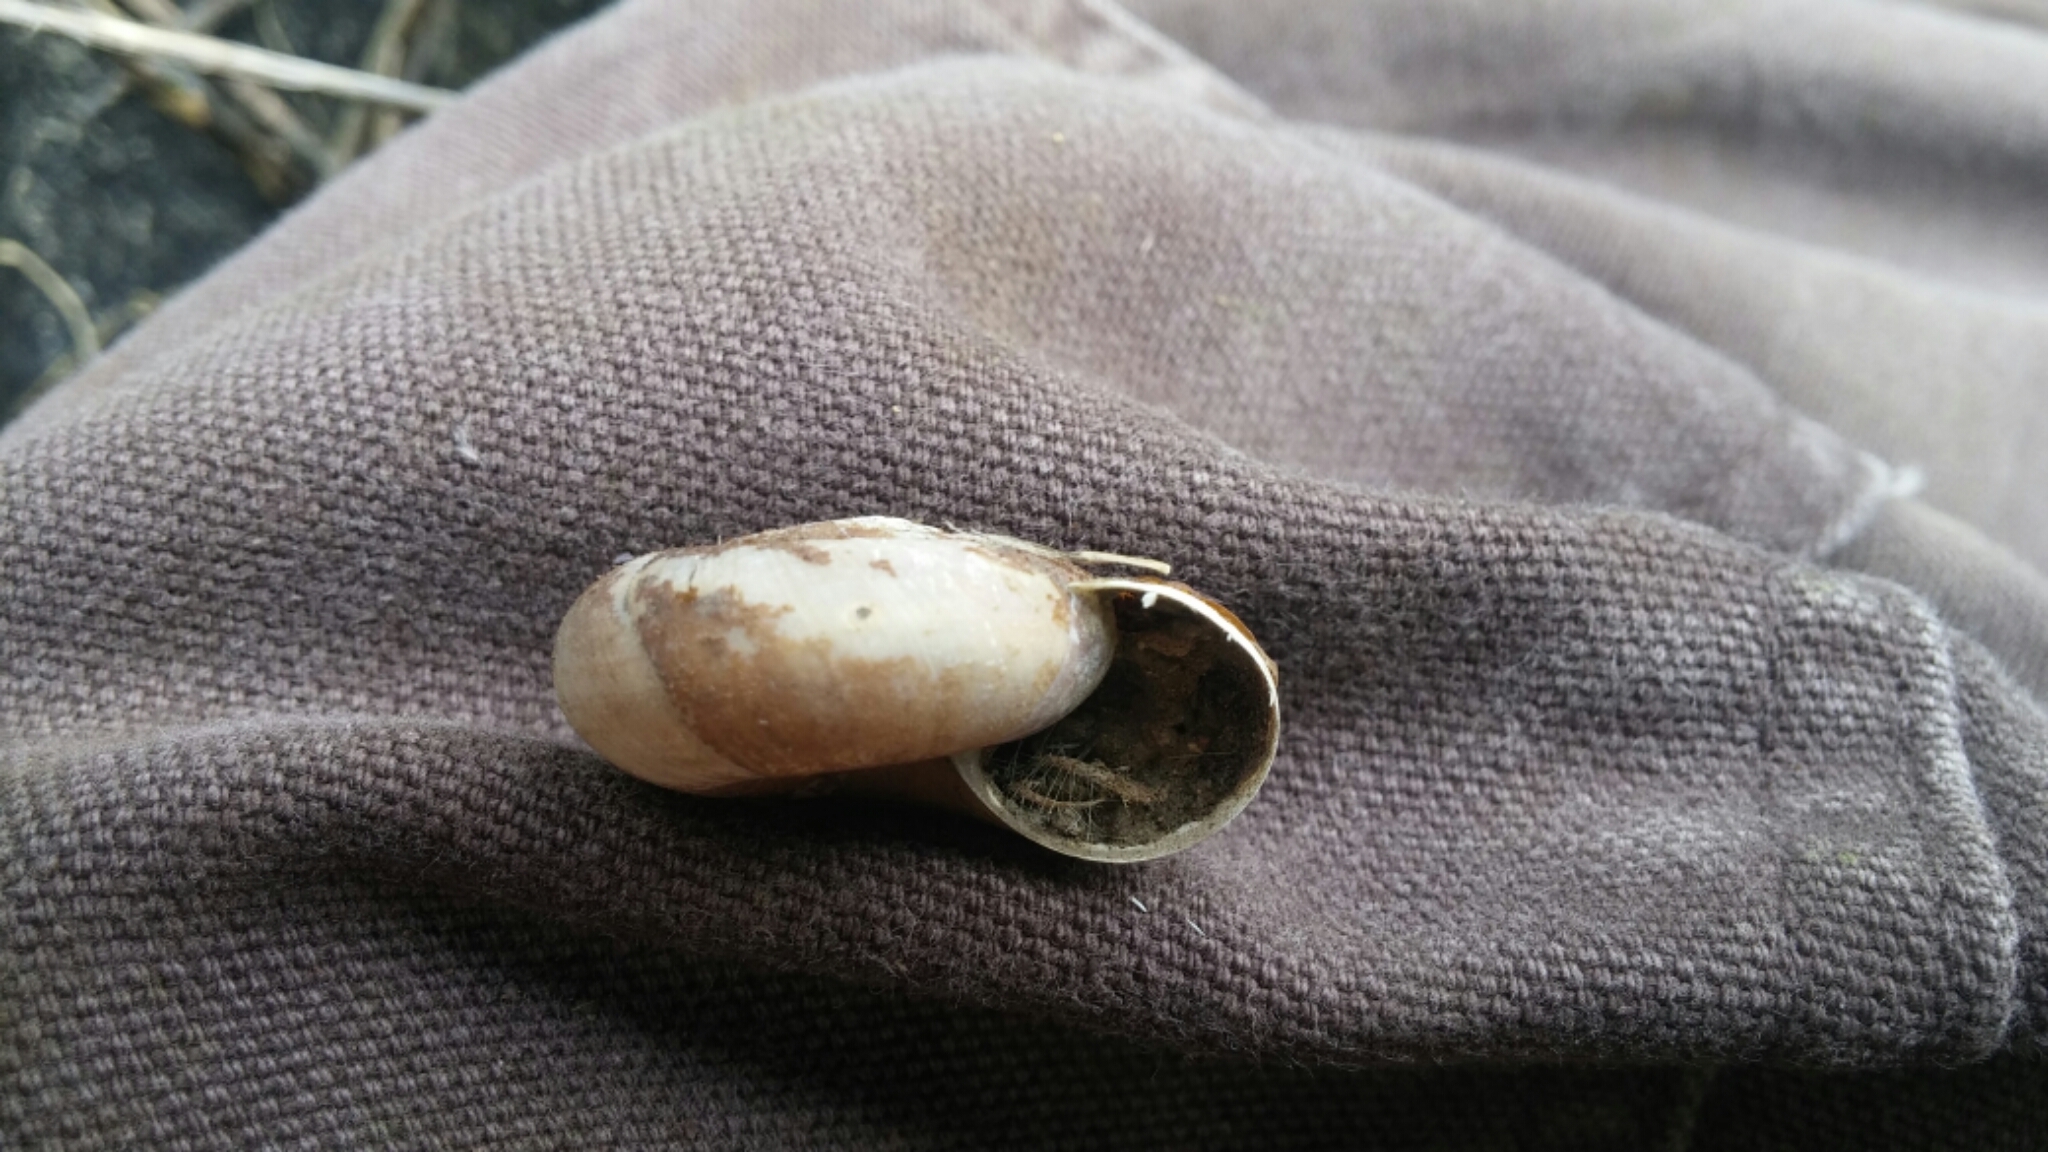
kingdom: Animalia
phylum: Mollusca
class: Gastropoda
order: Stylommatophora
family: Megomphicidae
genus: Glyptostoma
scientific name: Glyptostoma newberryanum
